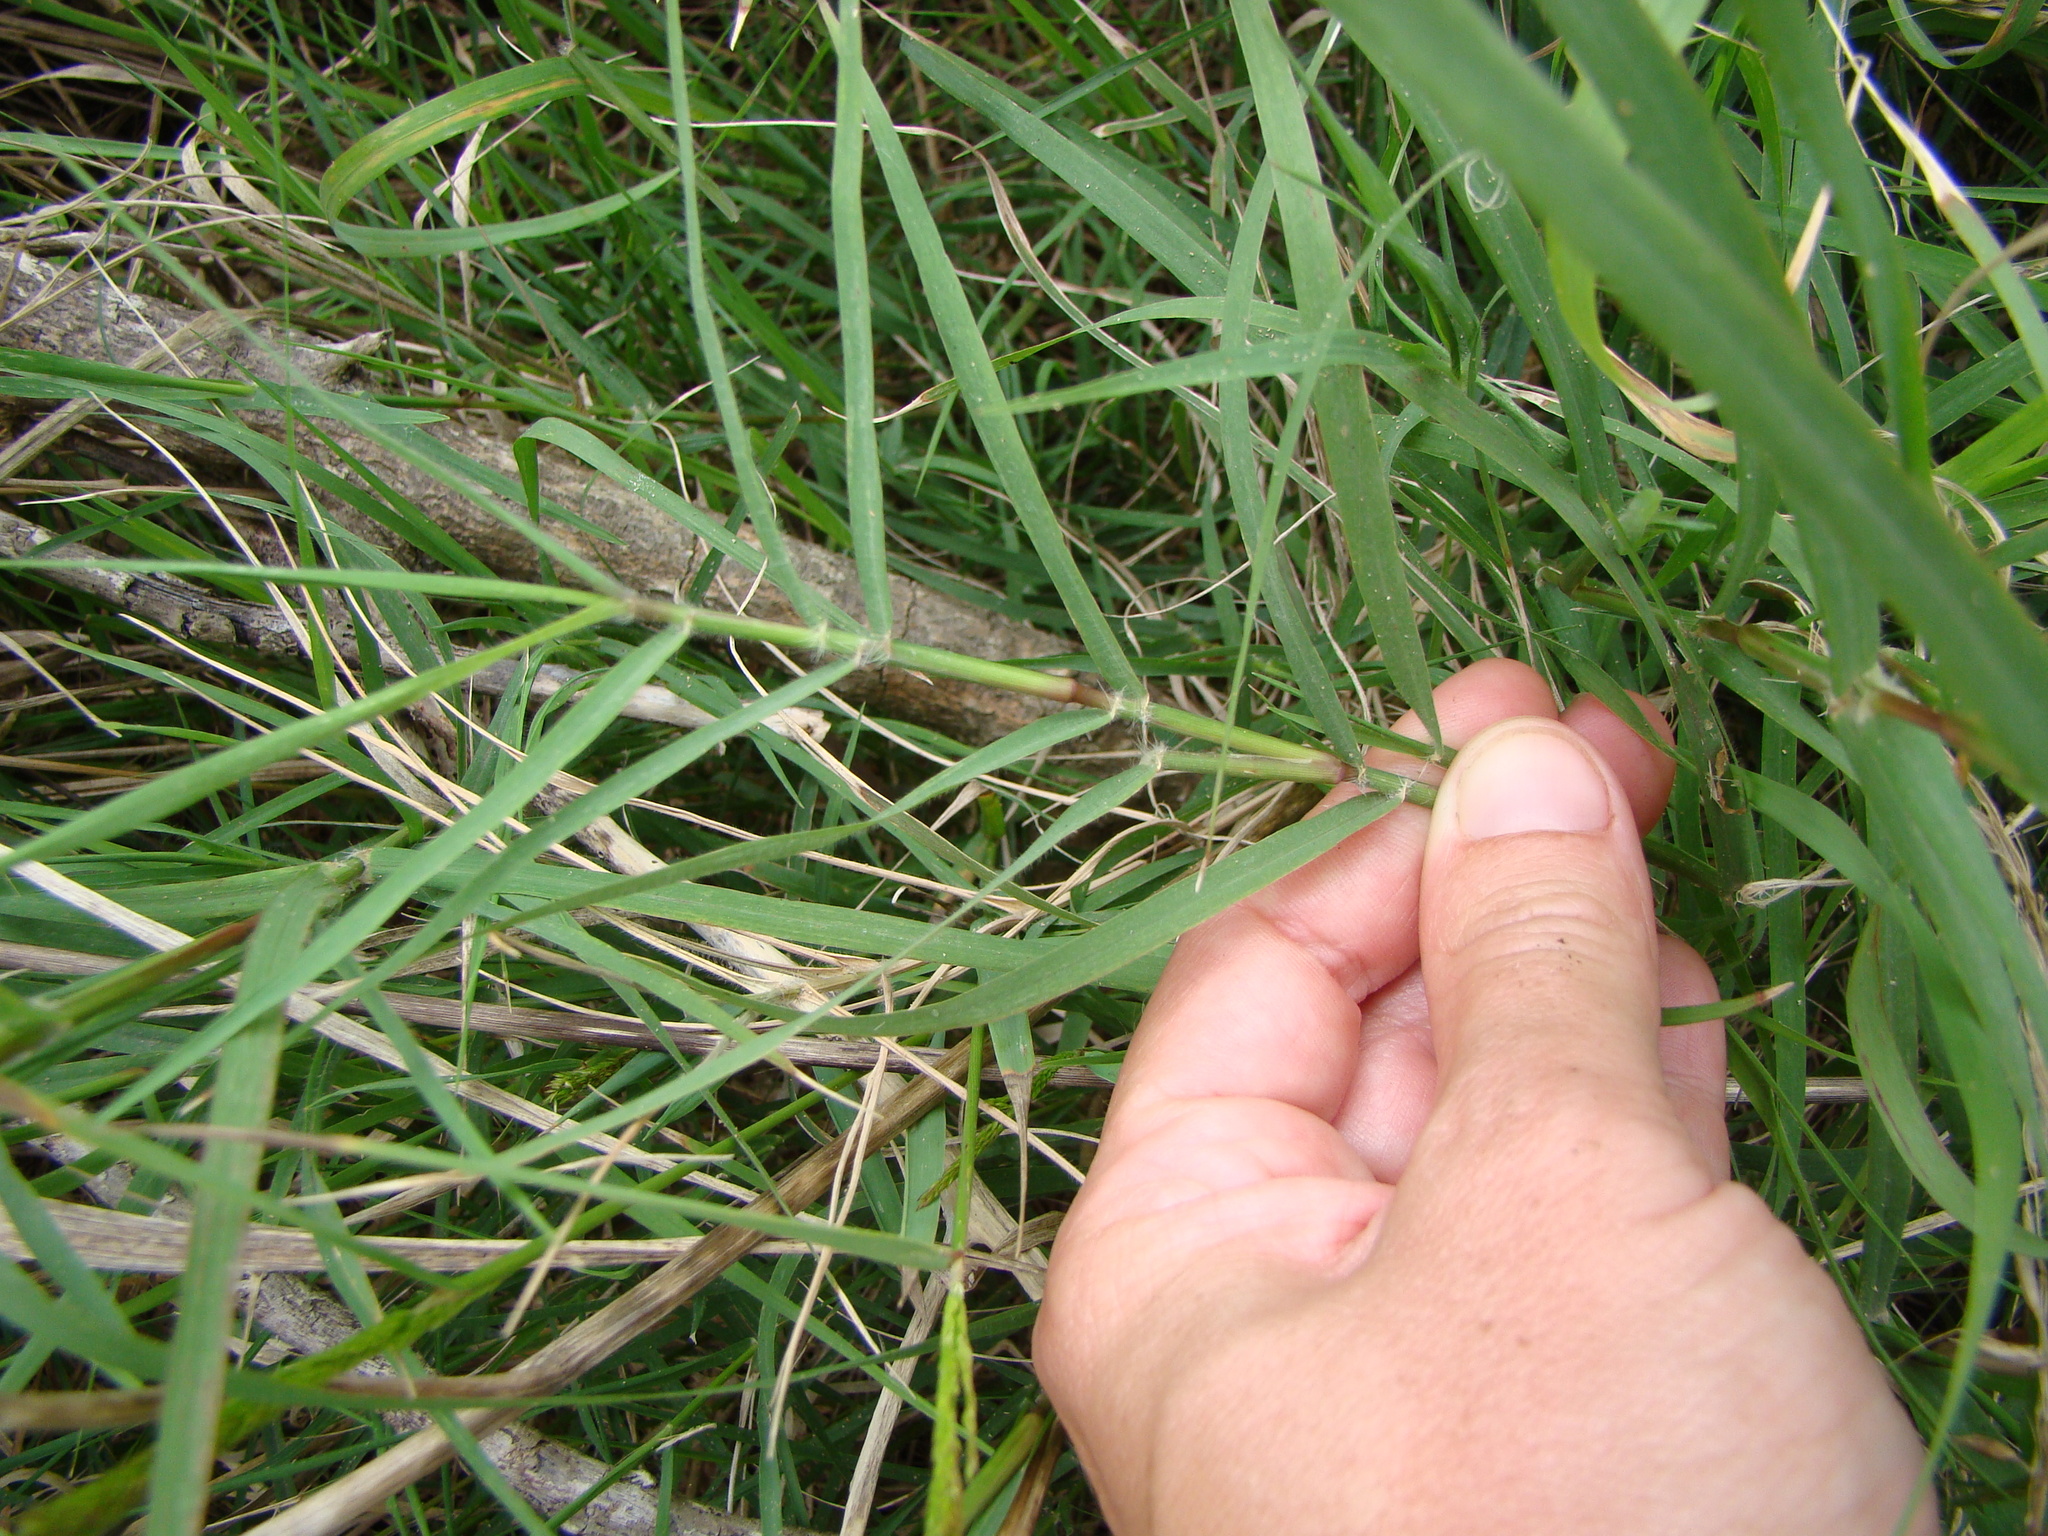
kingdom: Plantae
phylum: Tracheophyta
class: Liliopsida
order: Poales
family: Poaceae
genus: Cynodon
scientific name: Cynodon dactylon
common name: Bermuda grass
